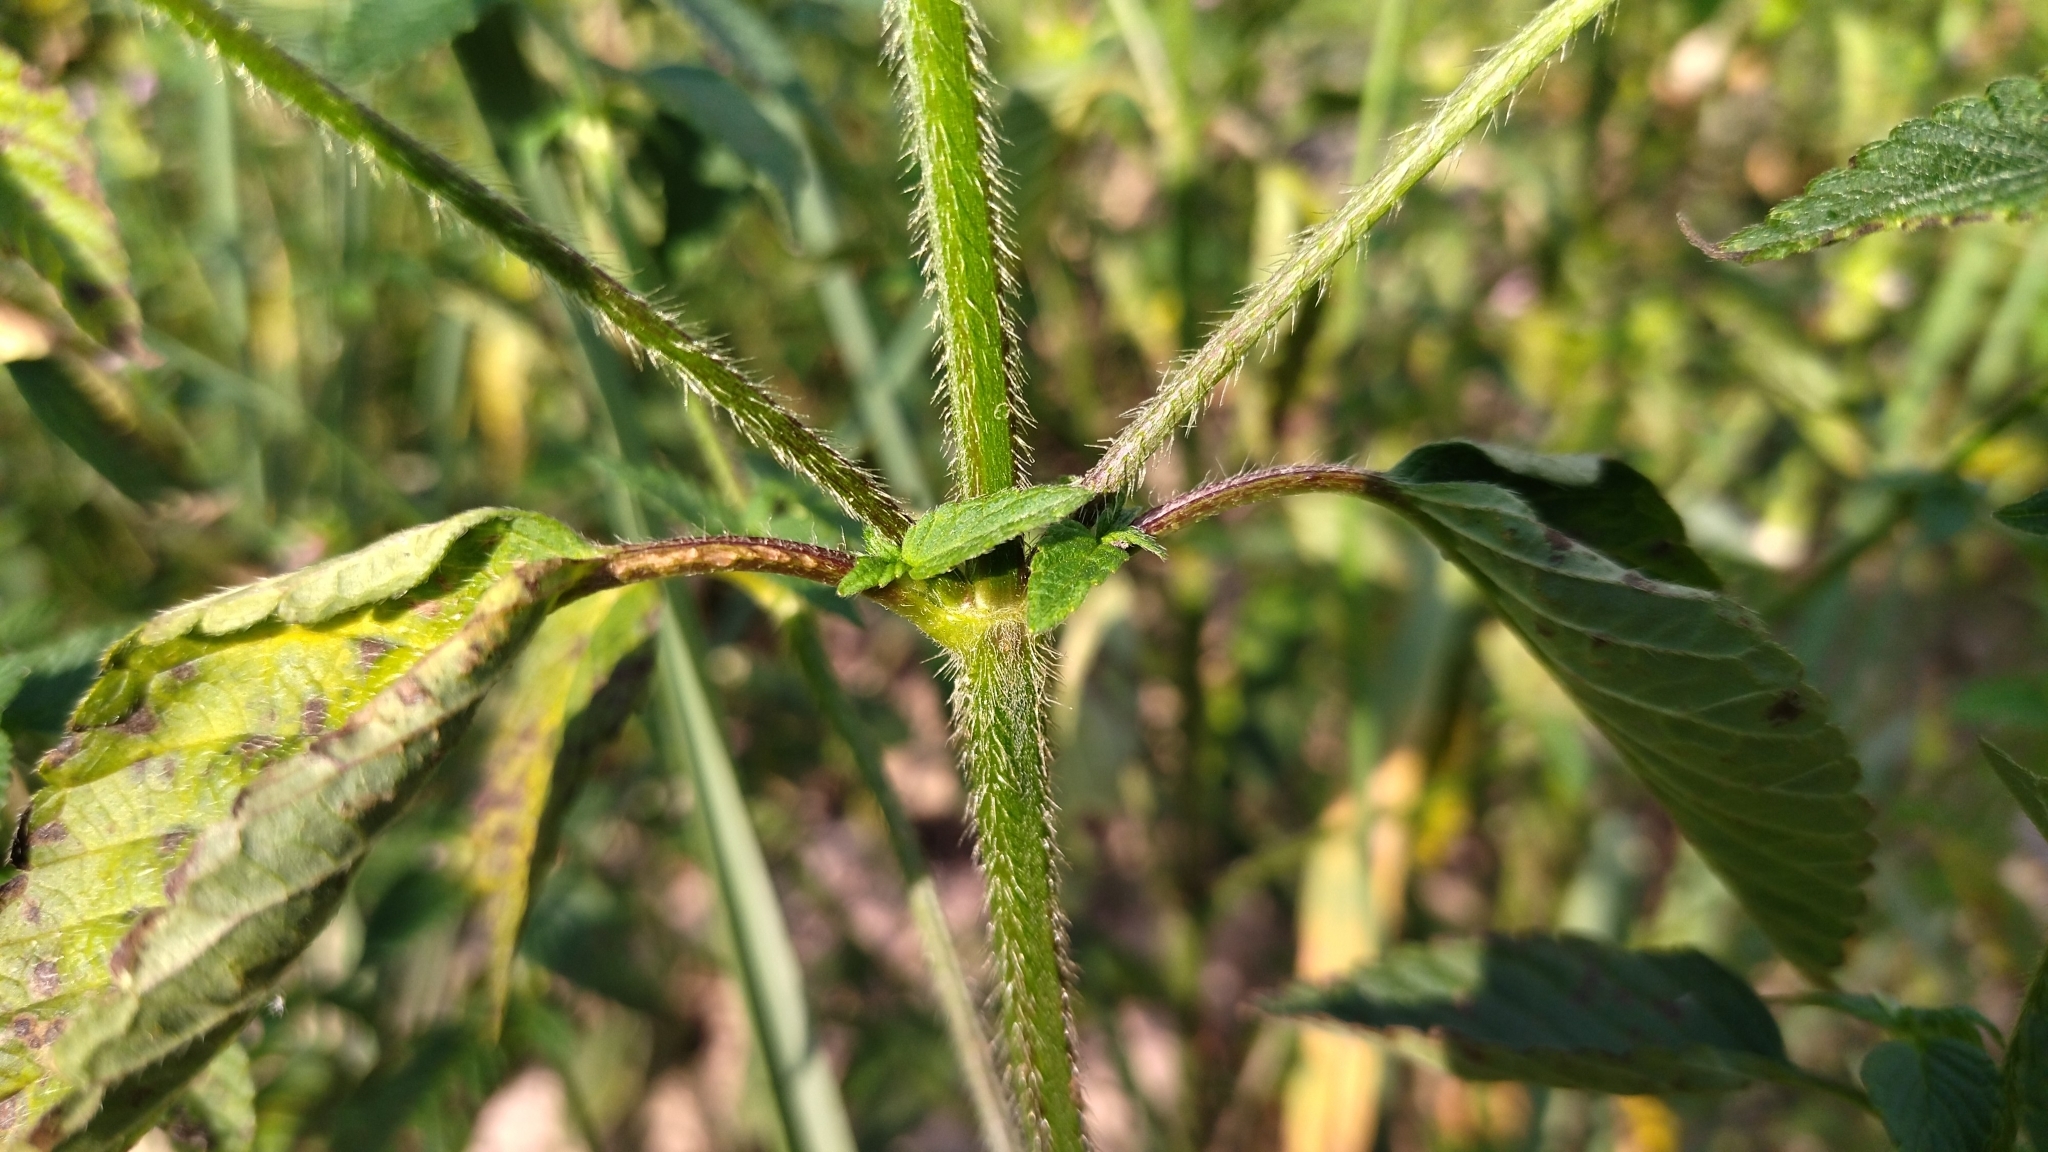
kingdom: Plantae
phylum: Tracheophyta
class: Magnoliopsida
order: Lamiales
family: Lamiaceae
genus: Galeopsis
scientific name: Galeopsis bifida
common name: Bifid hemp-nettle
